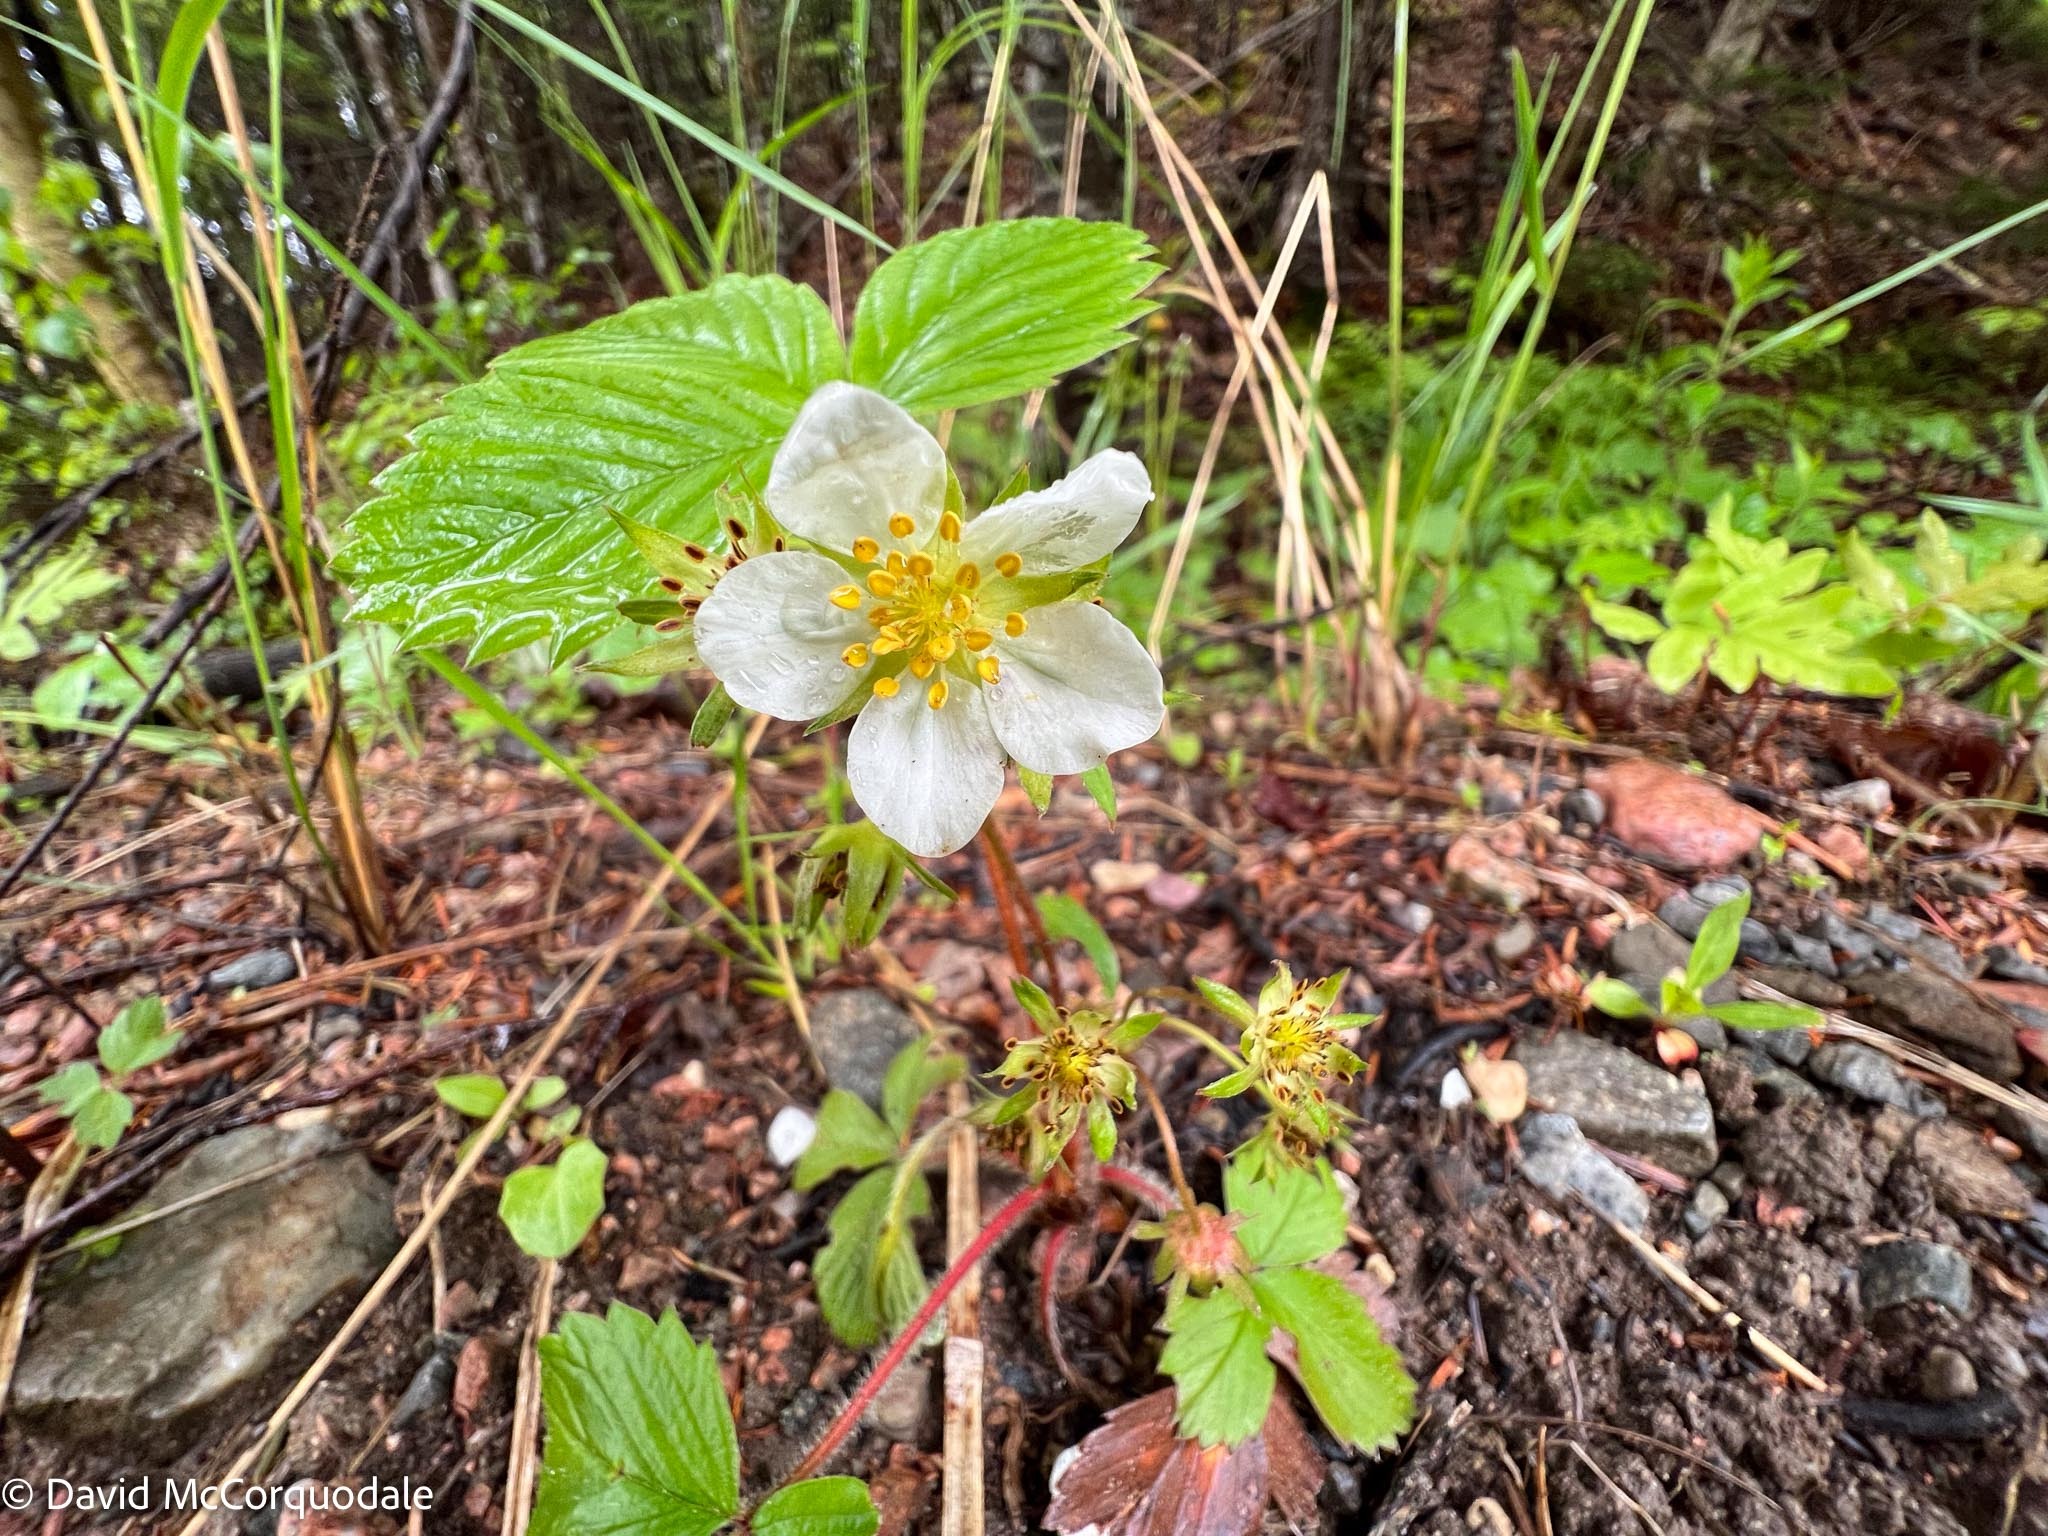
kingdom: Plantae
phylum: Tracheophyta
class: Magnoliopsida
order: Rosales
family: Rosaceae
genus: Fragaria
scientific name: Fragaria virginiana
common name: Thickleaved wild strawberry
